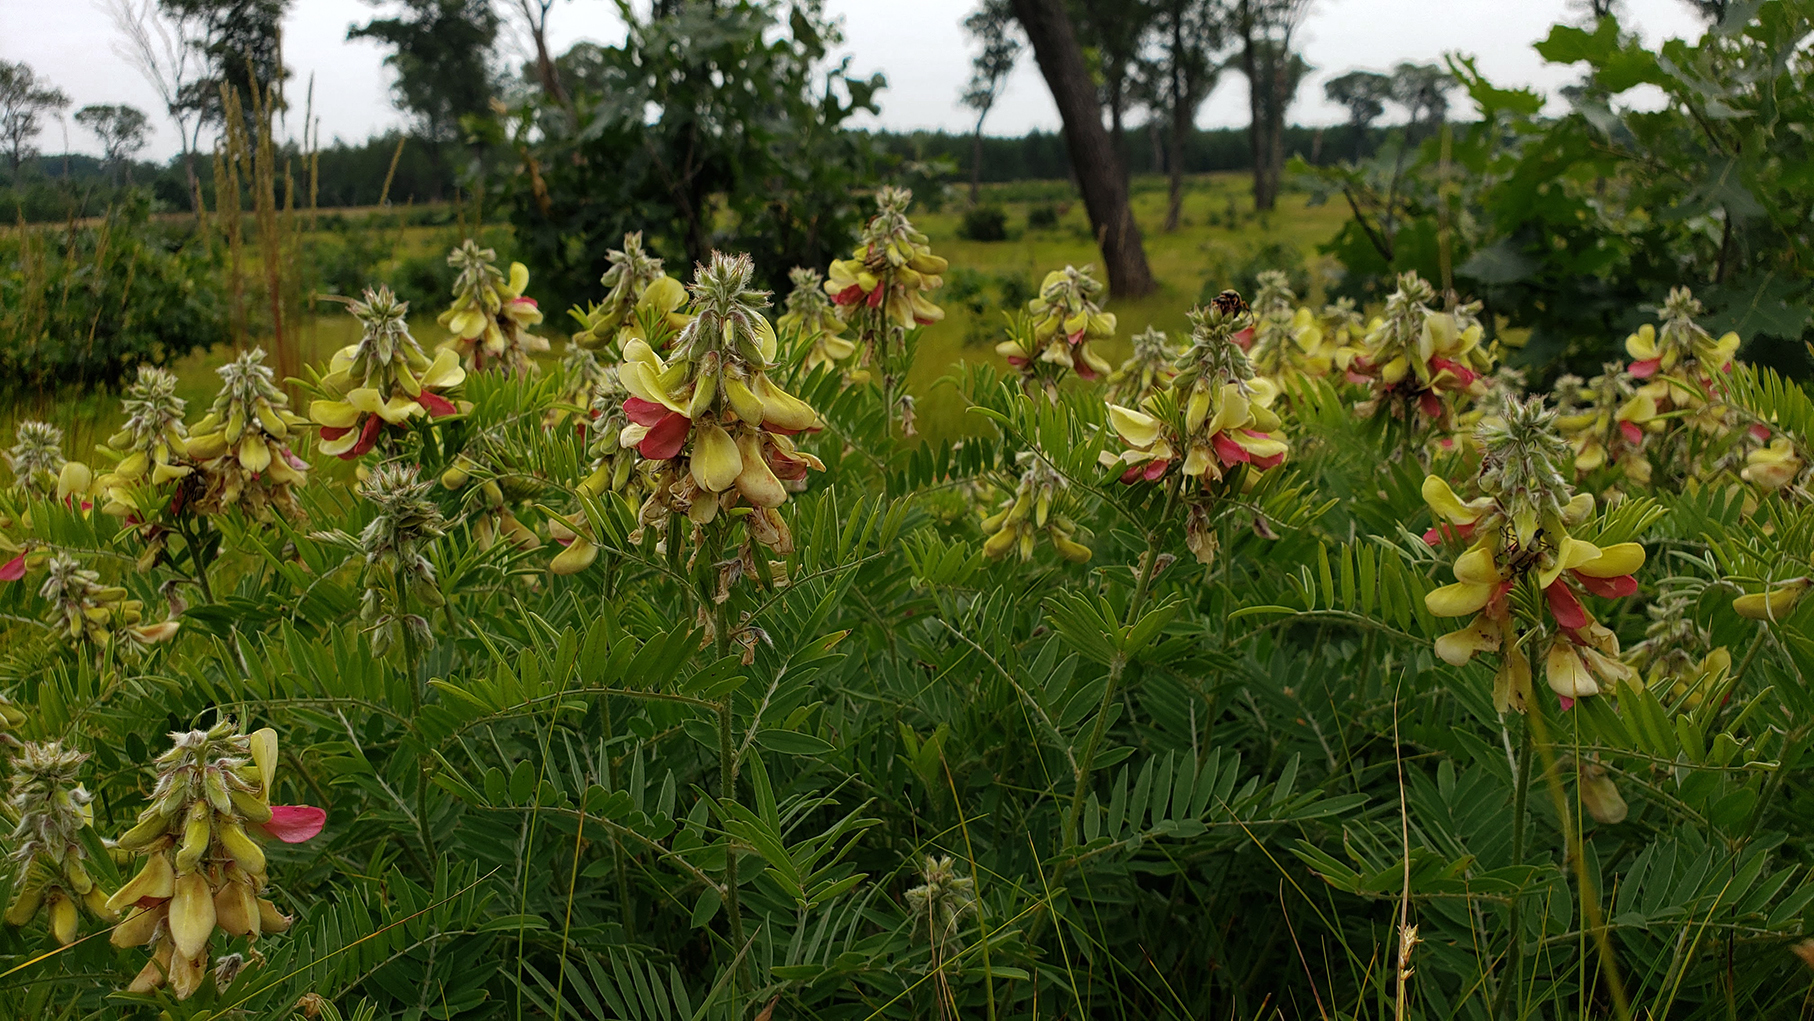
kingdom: Plantae
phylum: Tracheophyta
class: Magnoliopsida
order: Fabales
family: Fabaceae
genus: Tephrosia
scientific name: Tephrosia virginiana
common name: Rabbit-pea
